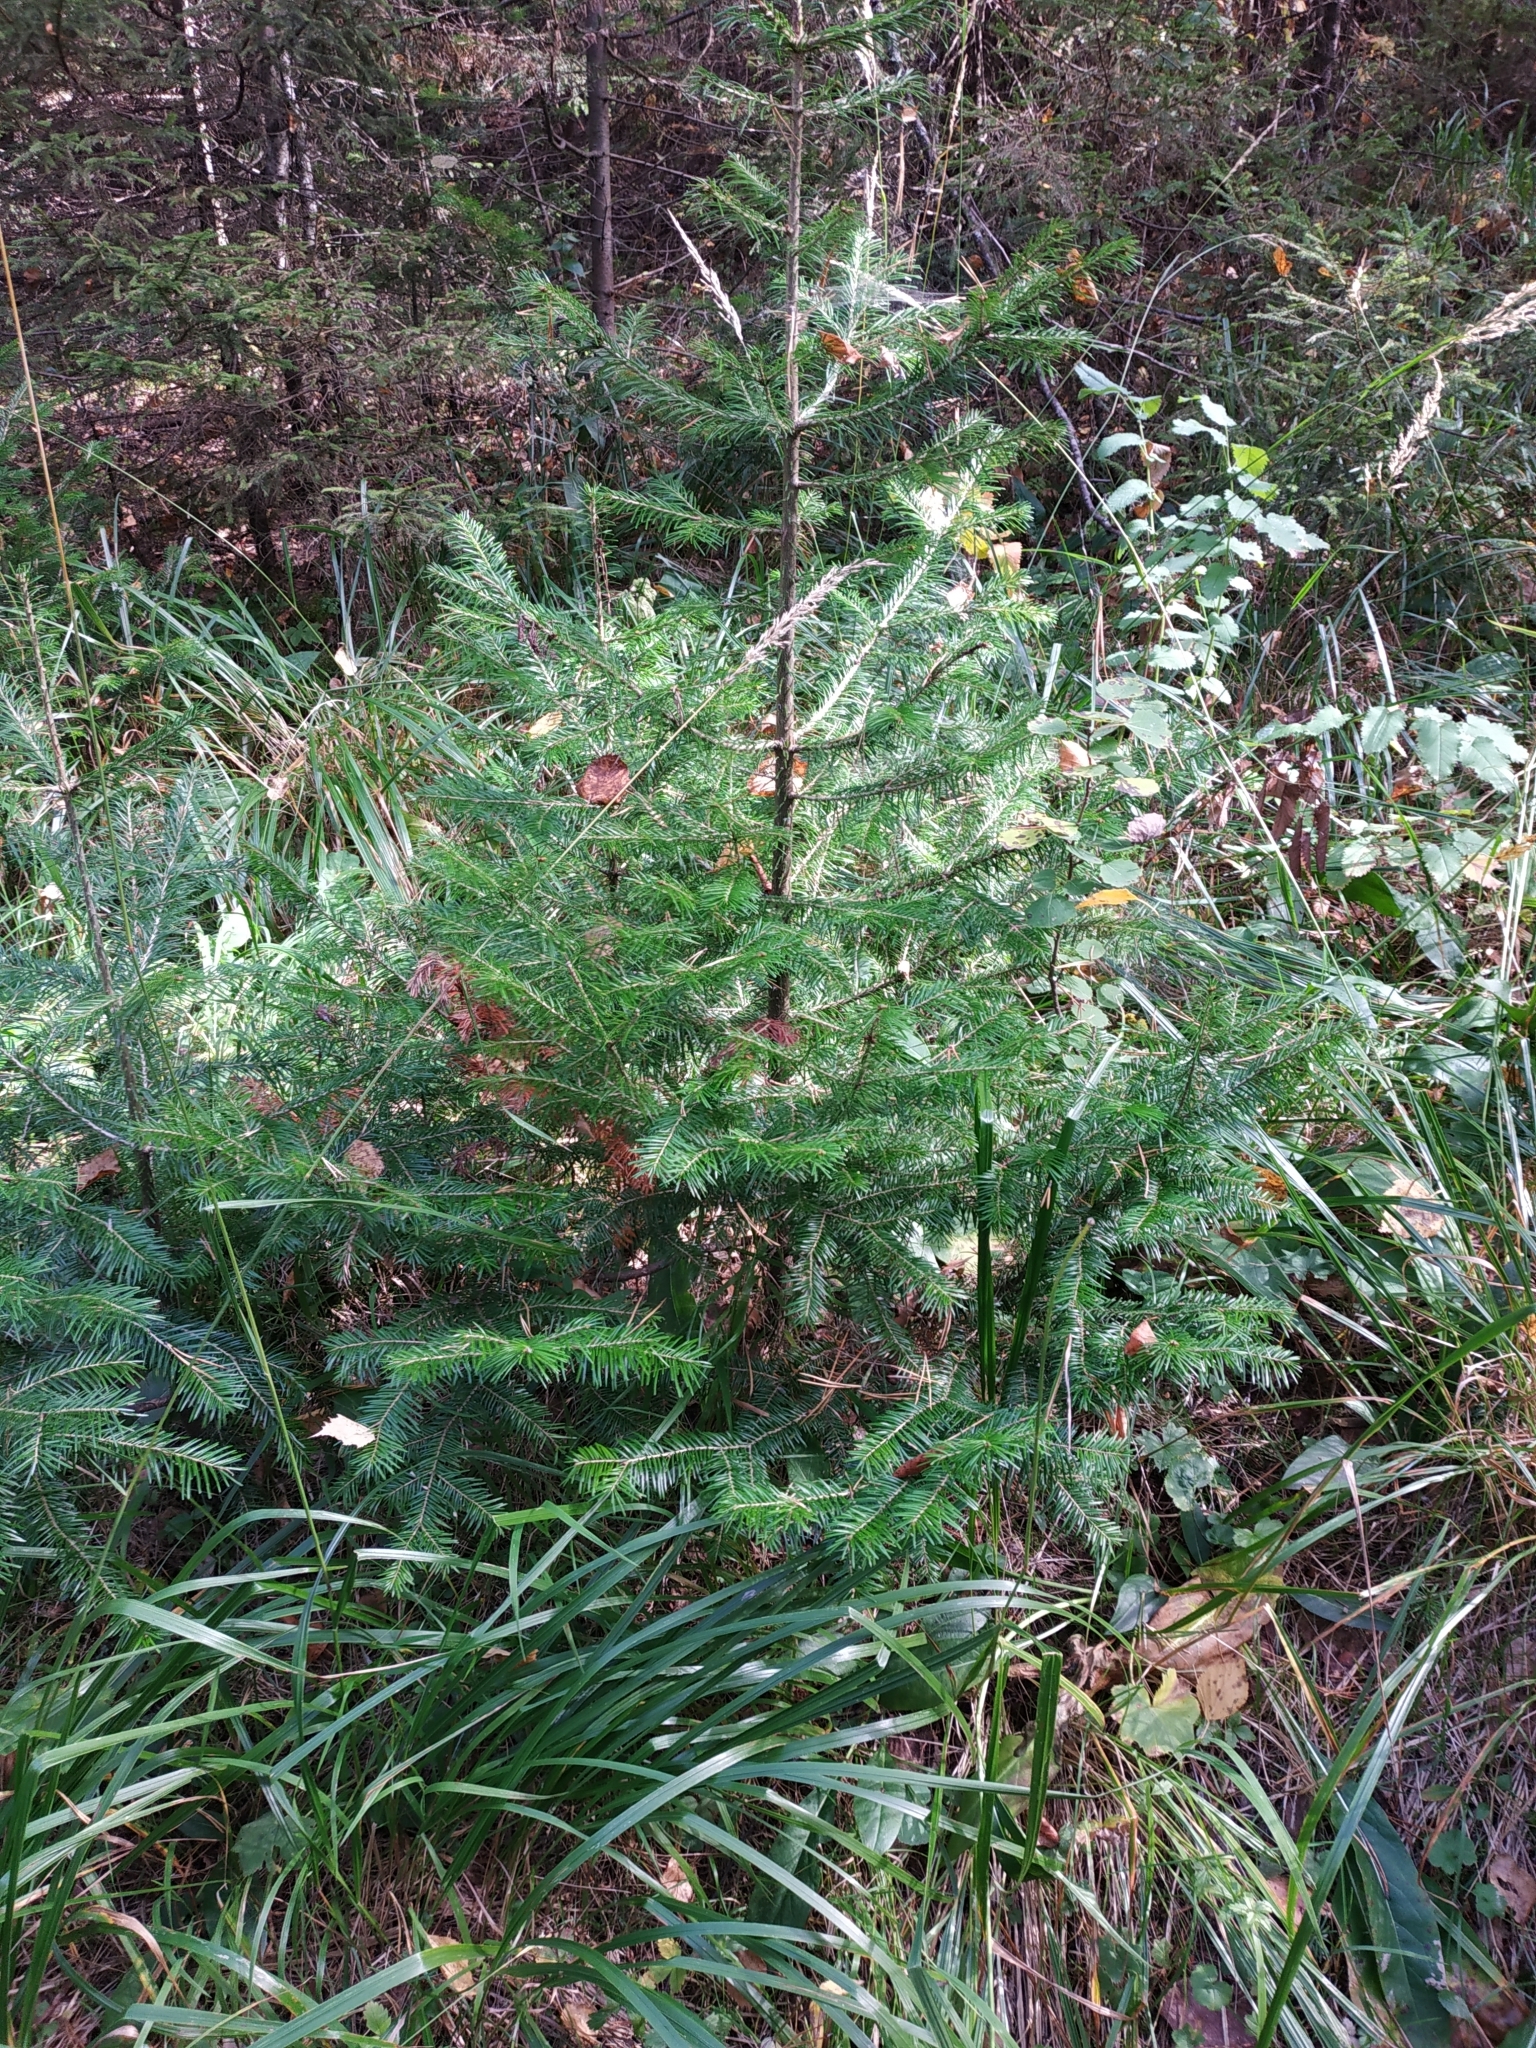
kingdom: Plantae
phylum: Tracheophyta
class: Pinopsida
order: Pinales
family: Pinaceae
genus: Abies
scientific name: Abies sibirica
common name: Siberian fir
